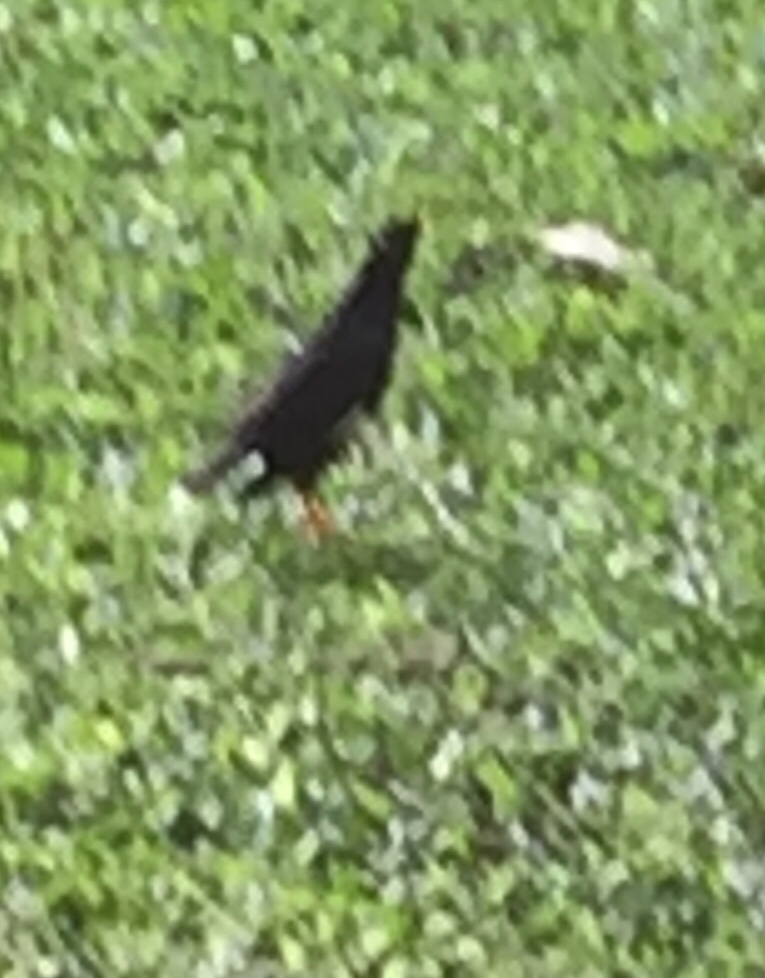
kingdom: Animalia
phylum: Chordata
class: Aves
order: Passeriformes
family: Sturnidae
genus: Acridotheres
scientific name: Acridotheres
